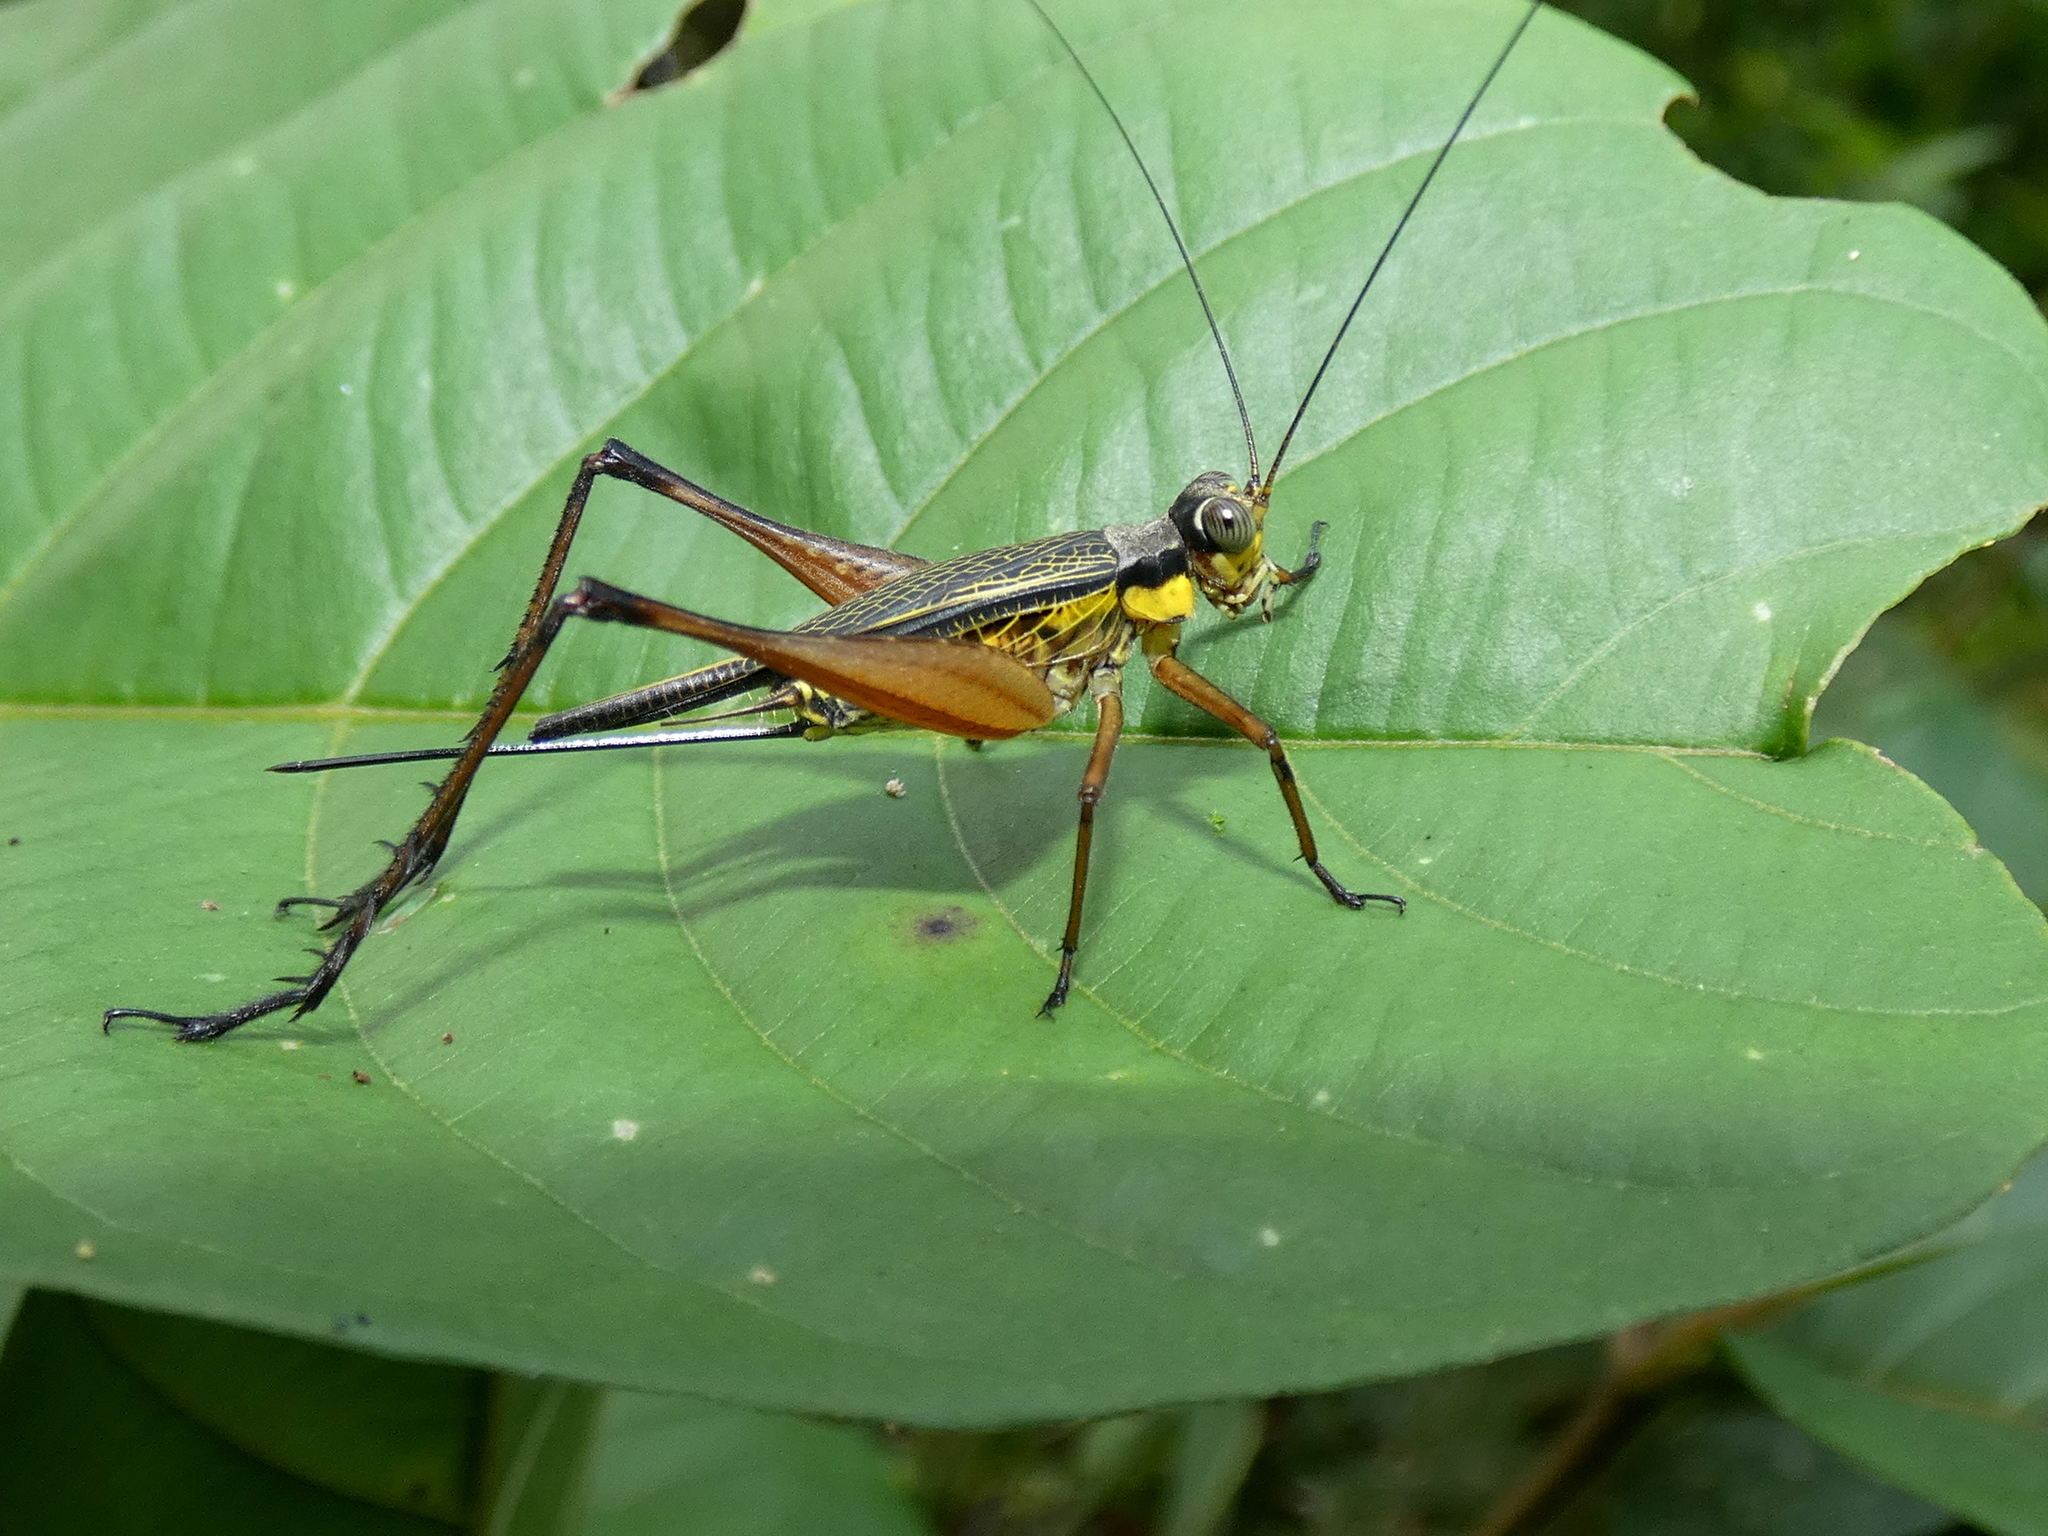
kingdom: Animalia
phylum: Arthropoda
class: Insecta
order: Orthoptera
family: Gryllidae
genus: Nisitrus
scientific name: Nisitrus vittatus
